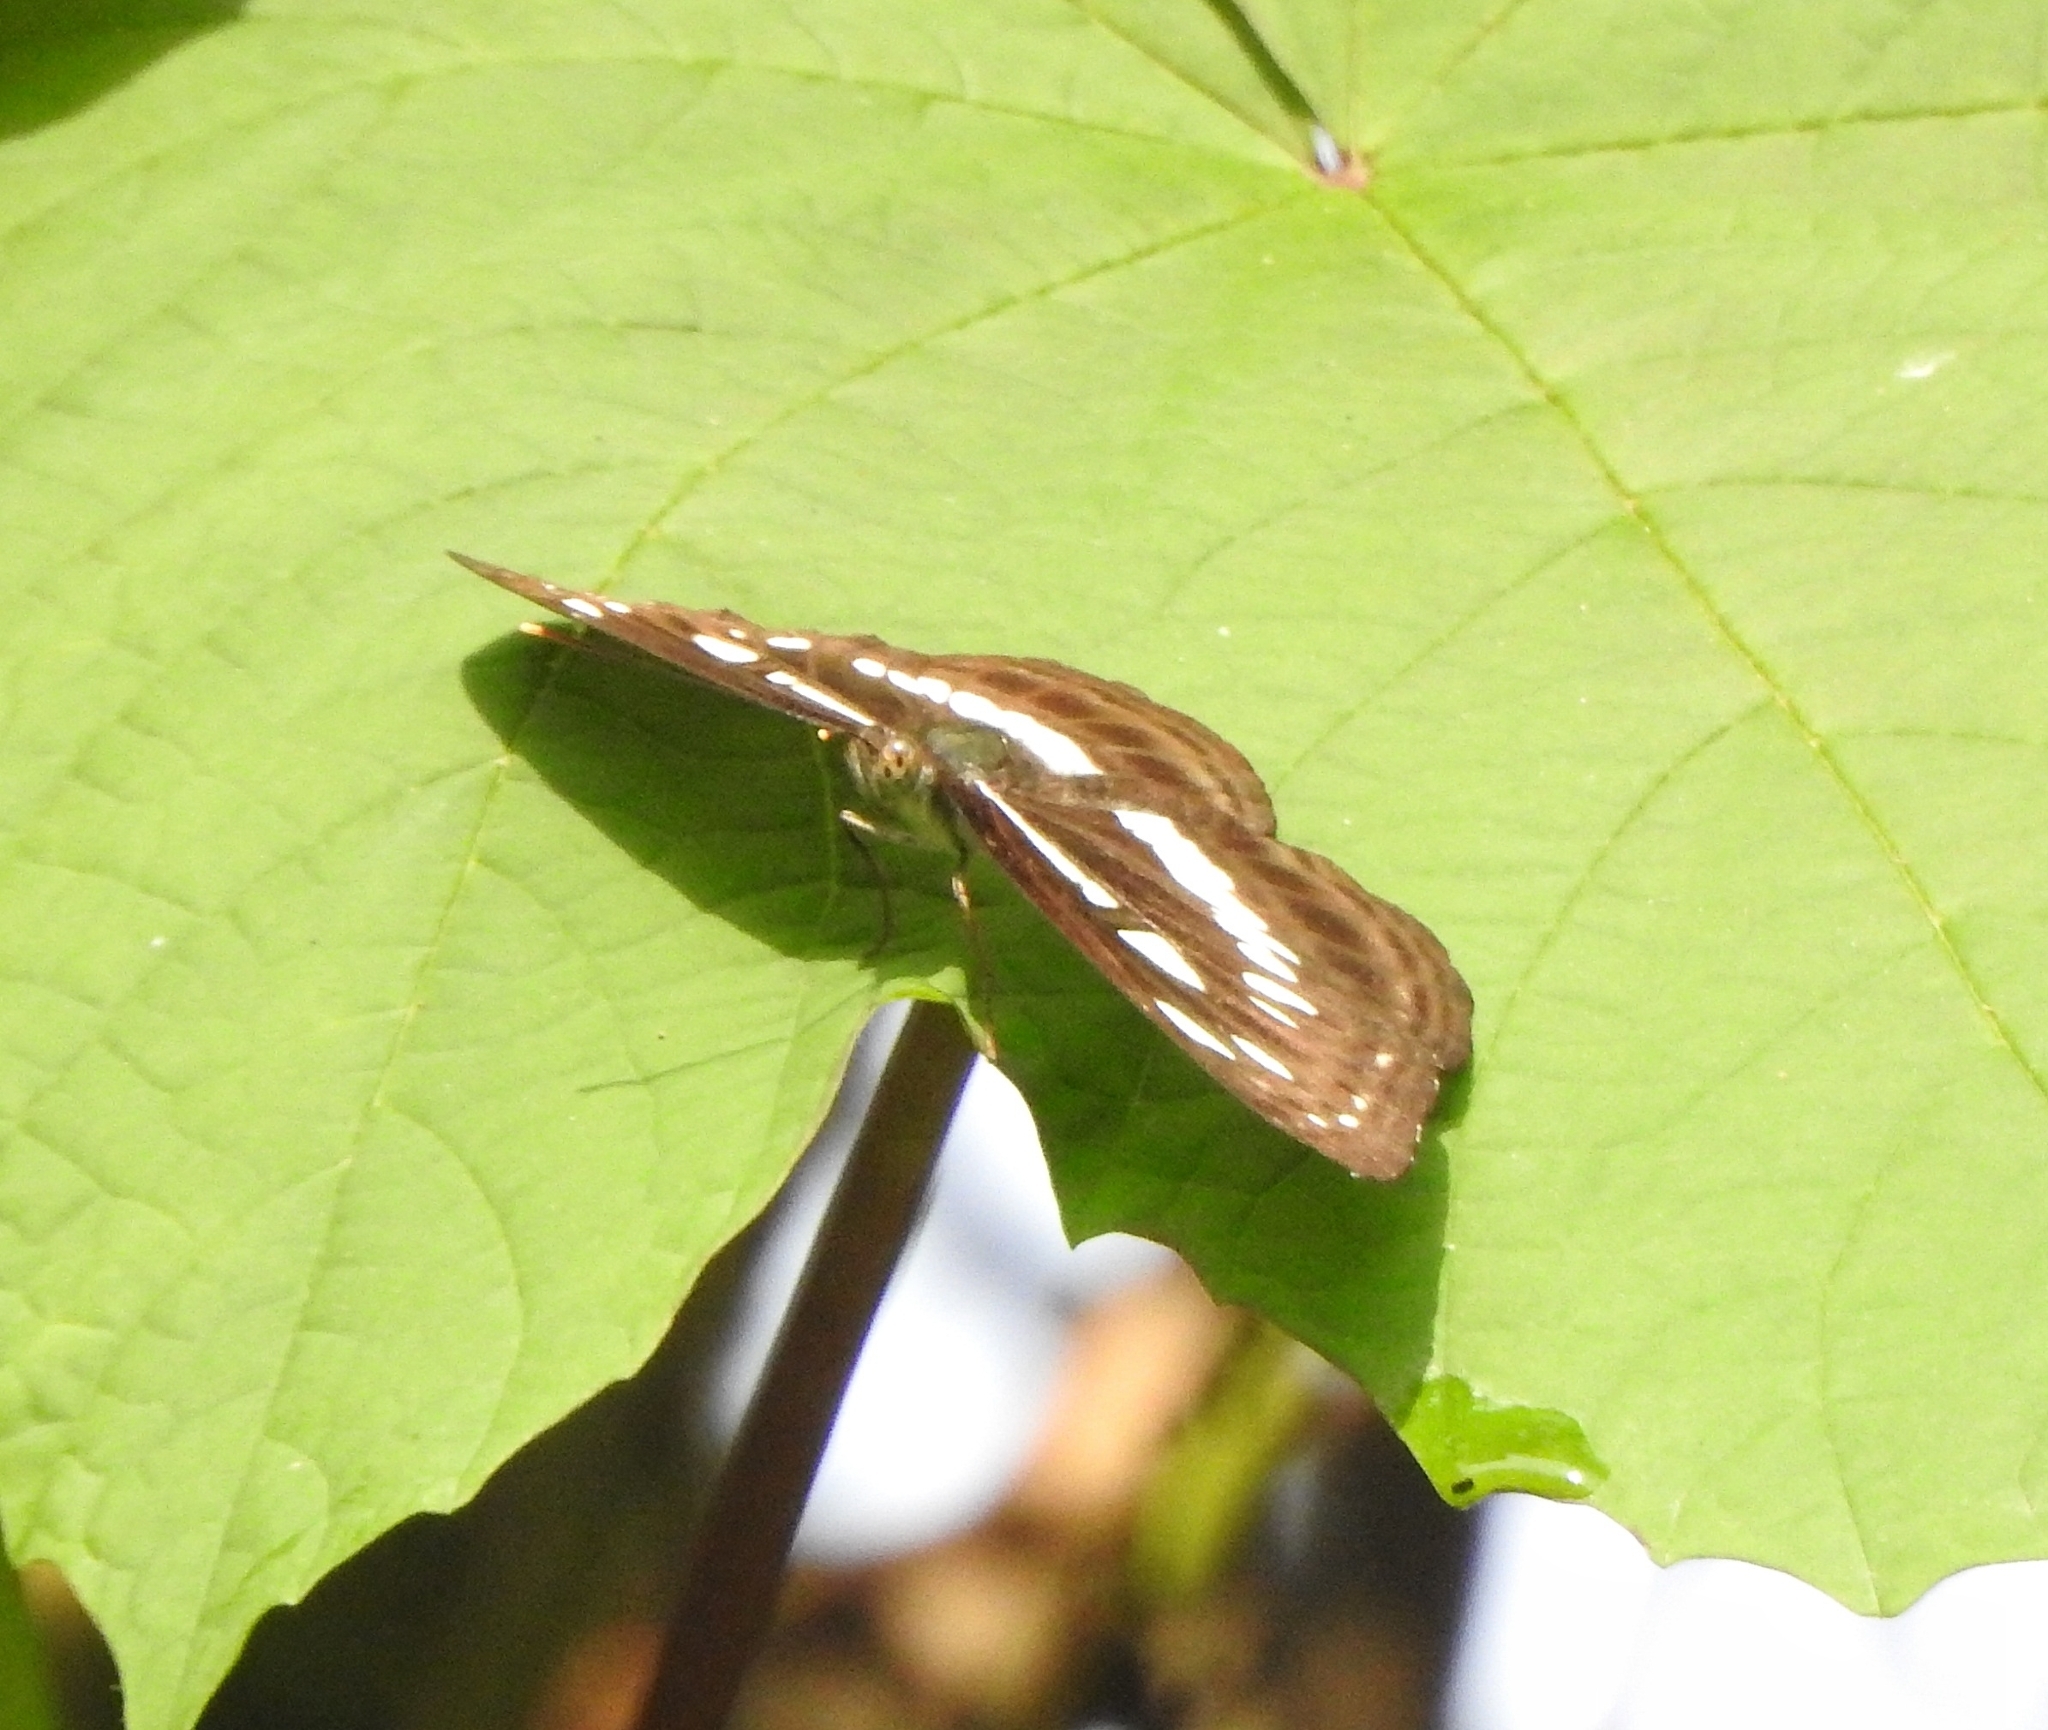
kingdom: Animalia
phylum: Arthropoda
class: Insecta
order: Lepidoptera
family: Nymphalidae
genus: Neptis
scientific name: Neptis jumbah
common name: Chestnut-streaked sailer
